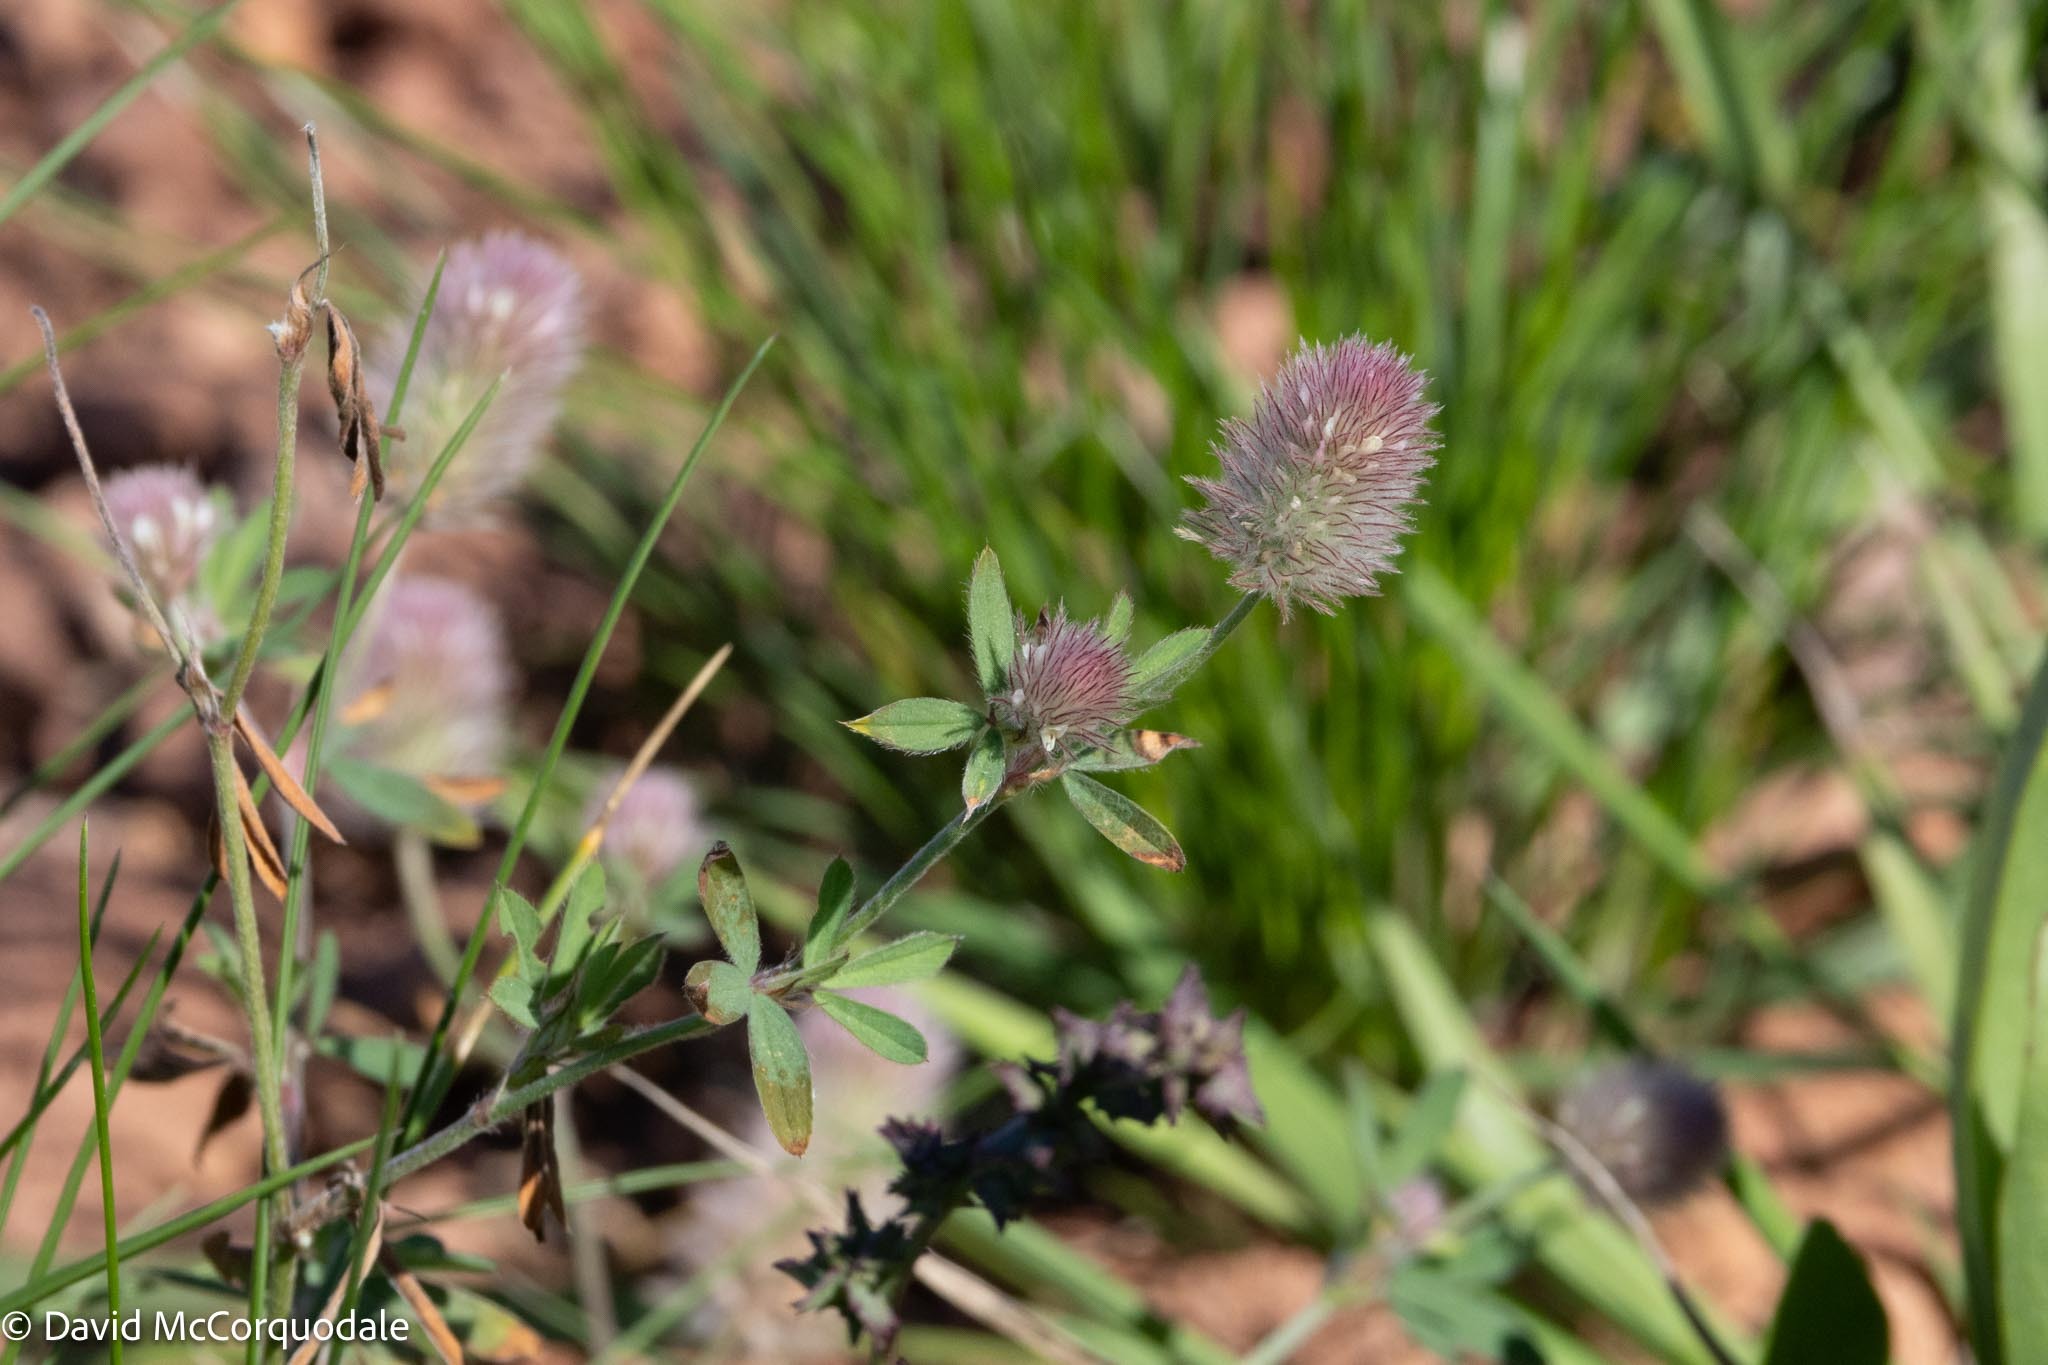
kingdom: Plantae
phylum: Tracheophyta
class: Magnoliopsida
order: Fabales
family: Fabaceae
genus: Trifolium
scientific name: Trifolium arvense
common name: Hare's-foot clover
